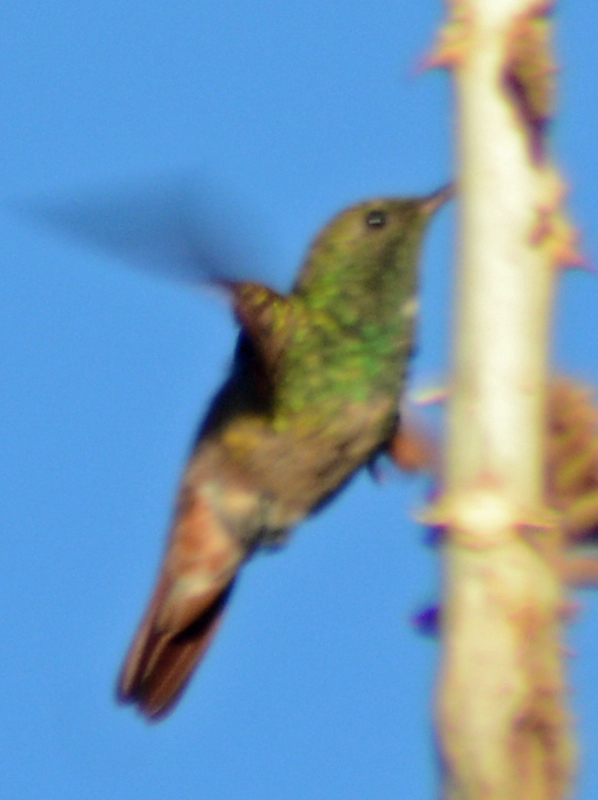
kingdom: Animalia
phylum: Chordata
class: Aves
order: Apodiformes
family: Trochilidae
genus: Saucerottia
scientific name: Saucerottia beryllina
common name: Berylline hummingbird
